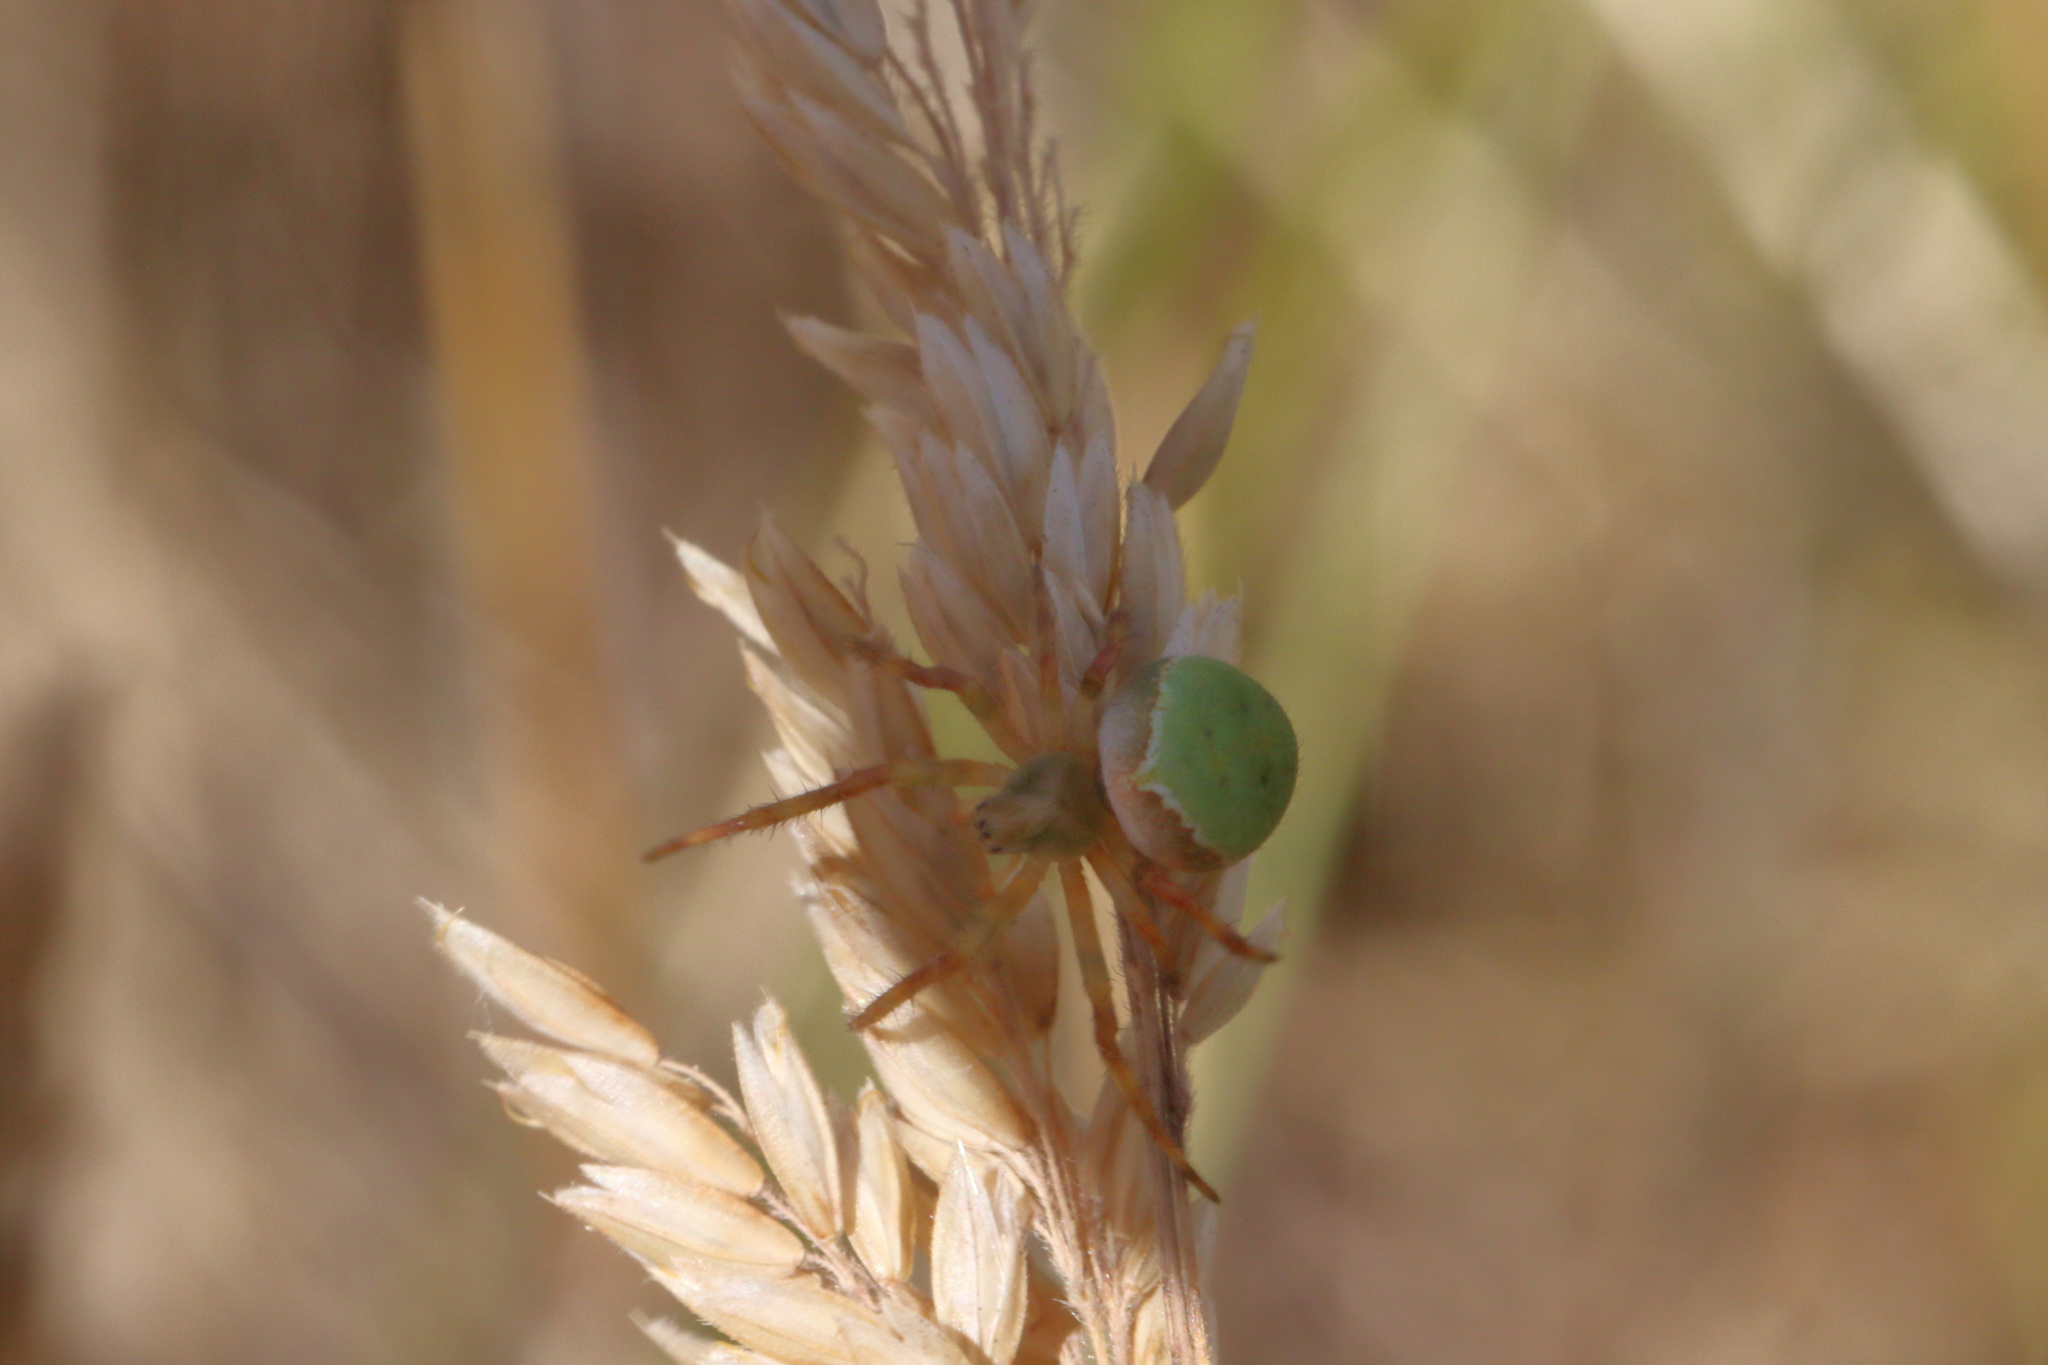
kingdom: Animalia
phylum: Arthropoda
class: Arachnida
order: Araneae
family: Araneidae
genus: Colaranea
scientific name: Colaranea viriditas
